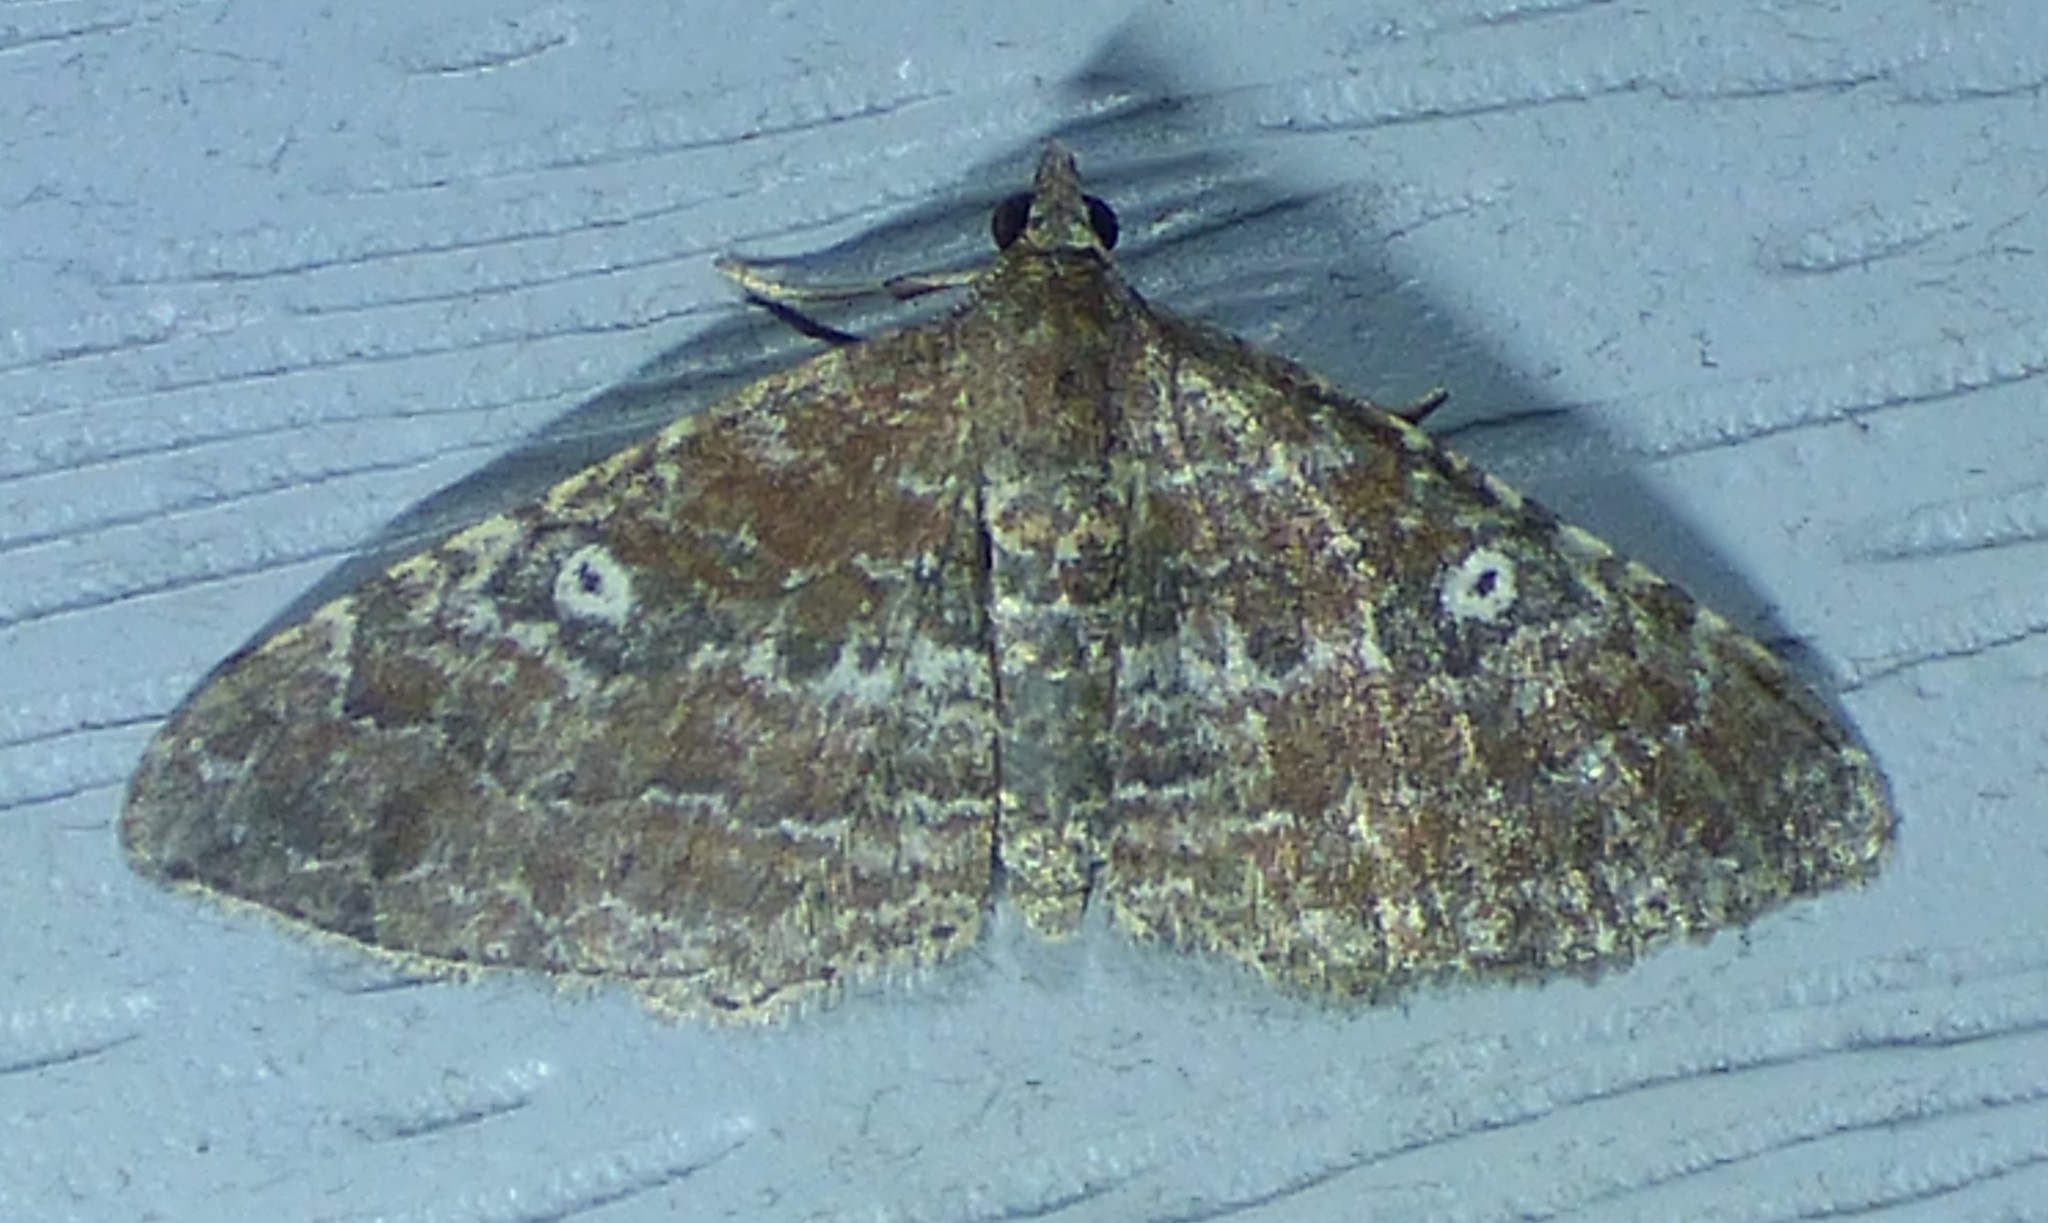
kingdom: Animalia
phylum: Arthropoda
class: Insecta
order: Lepidoptera
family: Geometridae
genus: Orthonama
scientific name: Orthonama obstipata
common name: The gem
